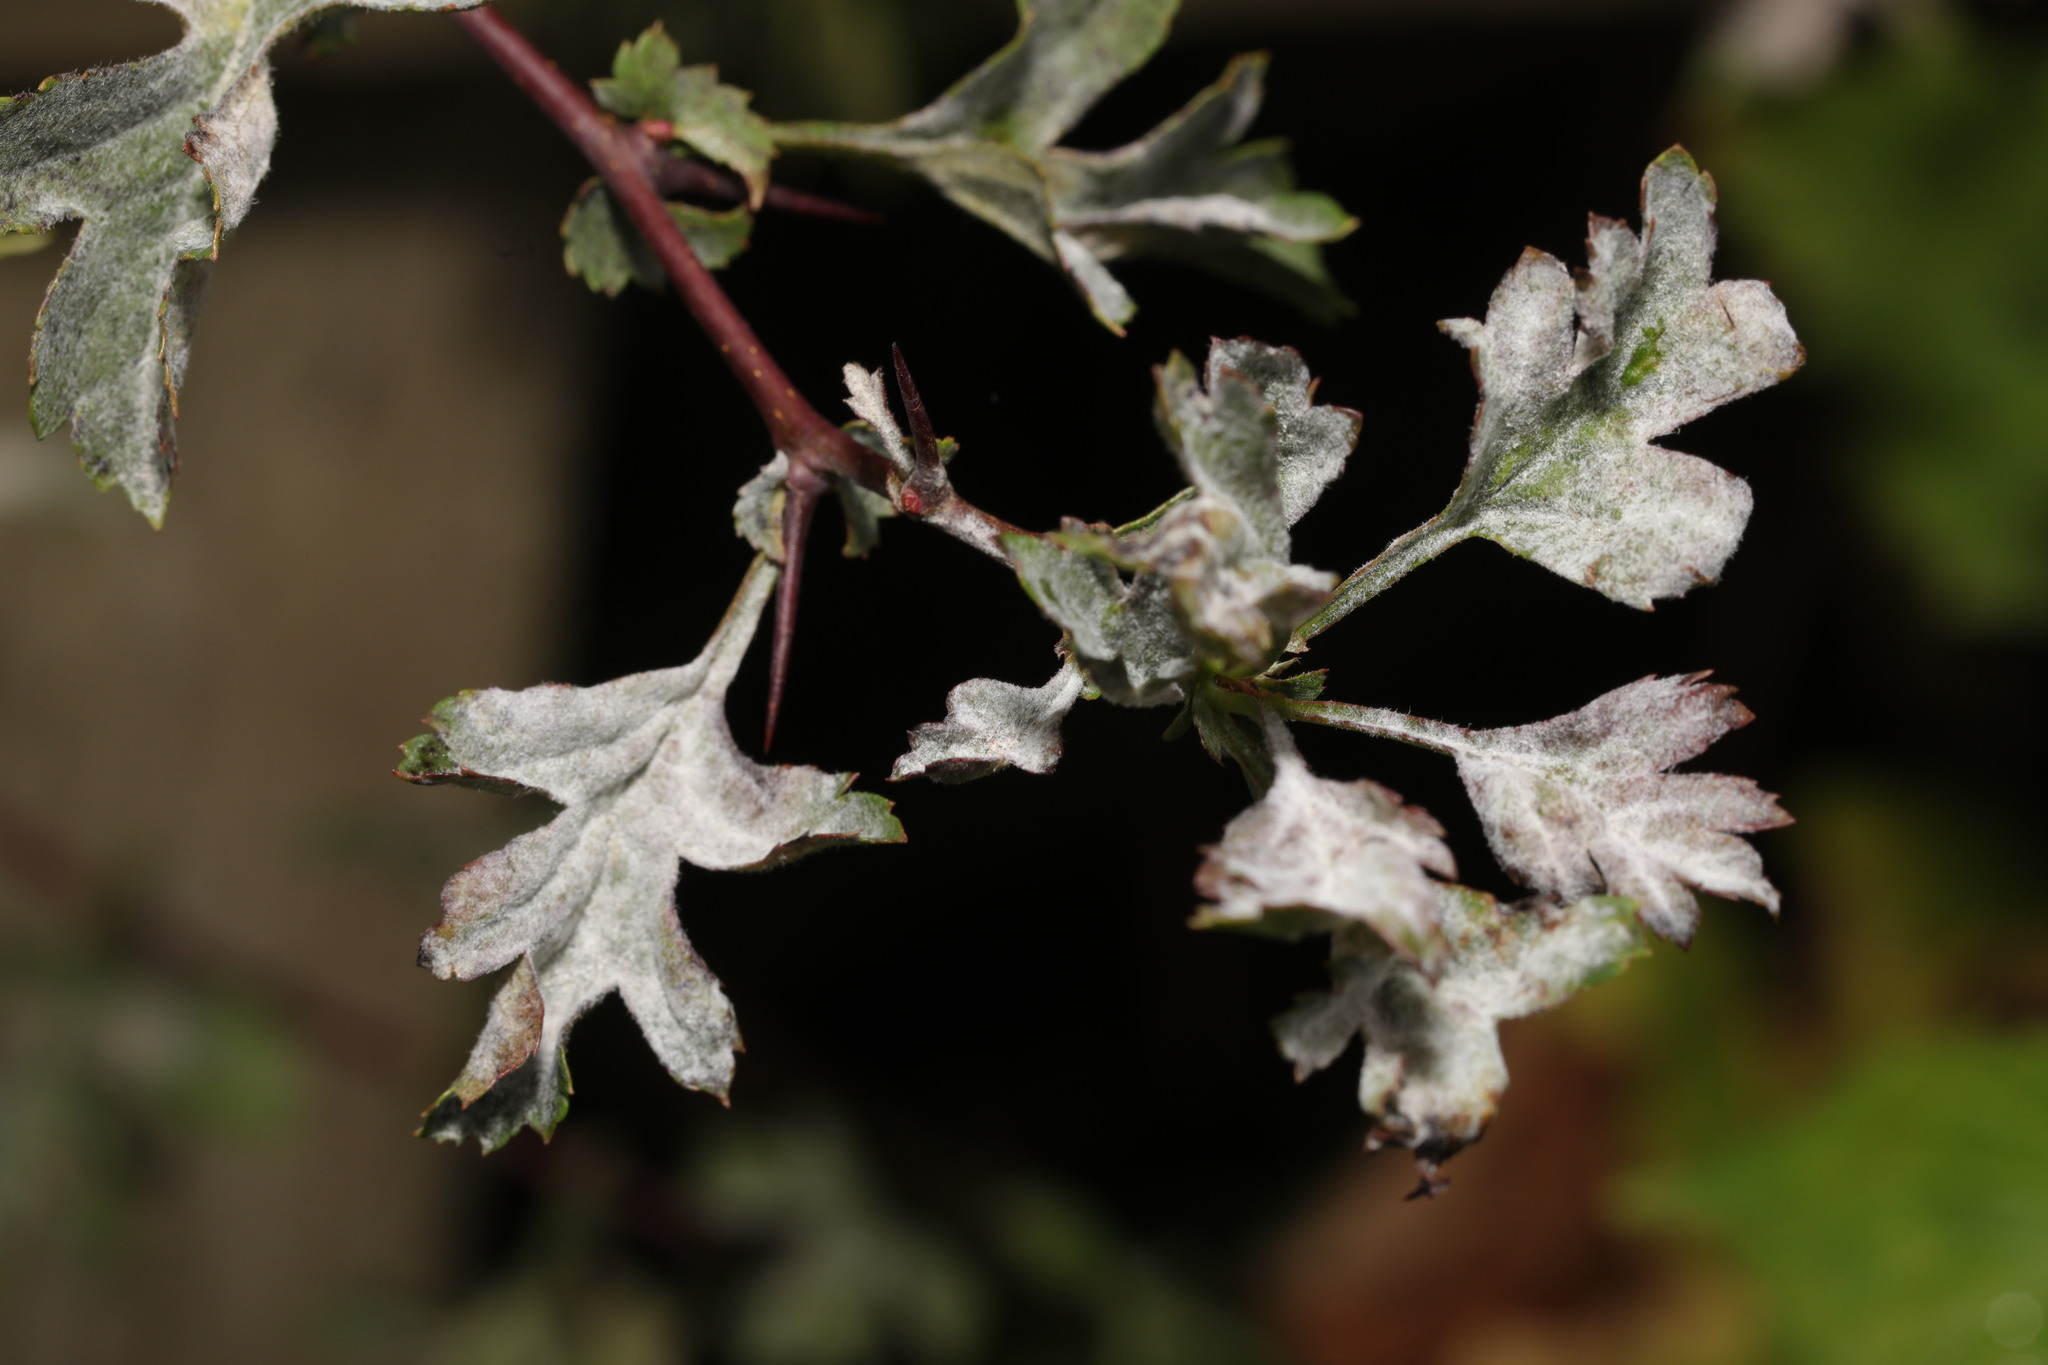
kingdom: Fungi
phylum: Ascomycota
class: Leotiomycetes
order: Helotiales
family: Erysiphaceae
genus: Podosphaera
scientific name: Podosphaera clandestina
